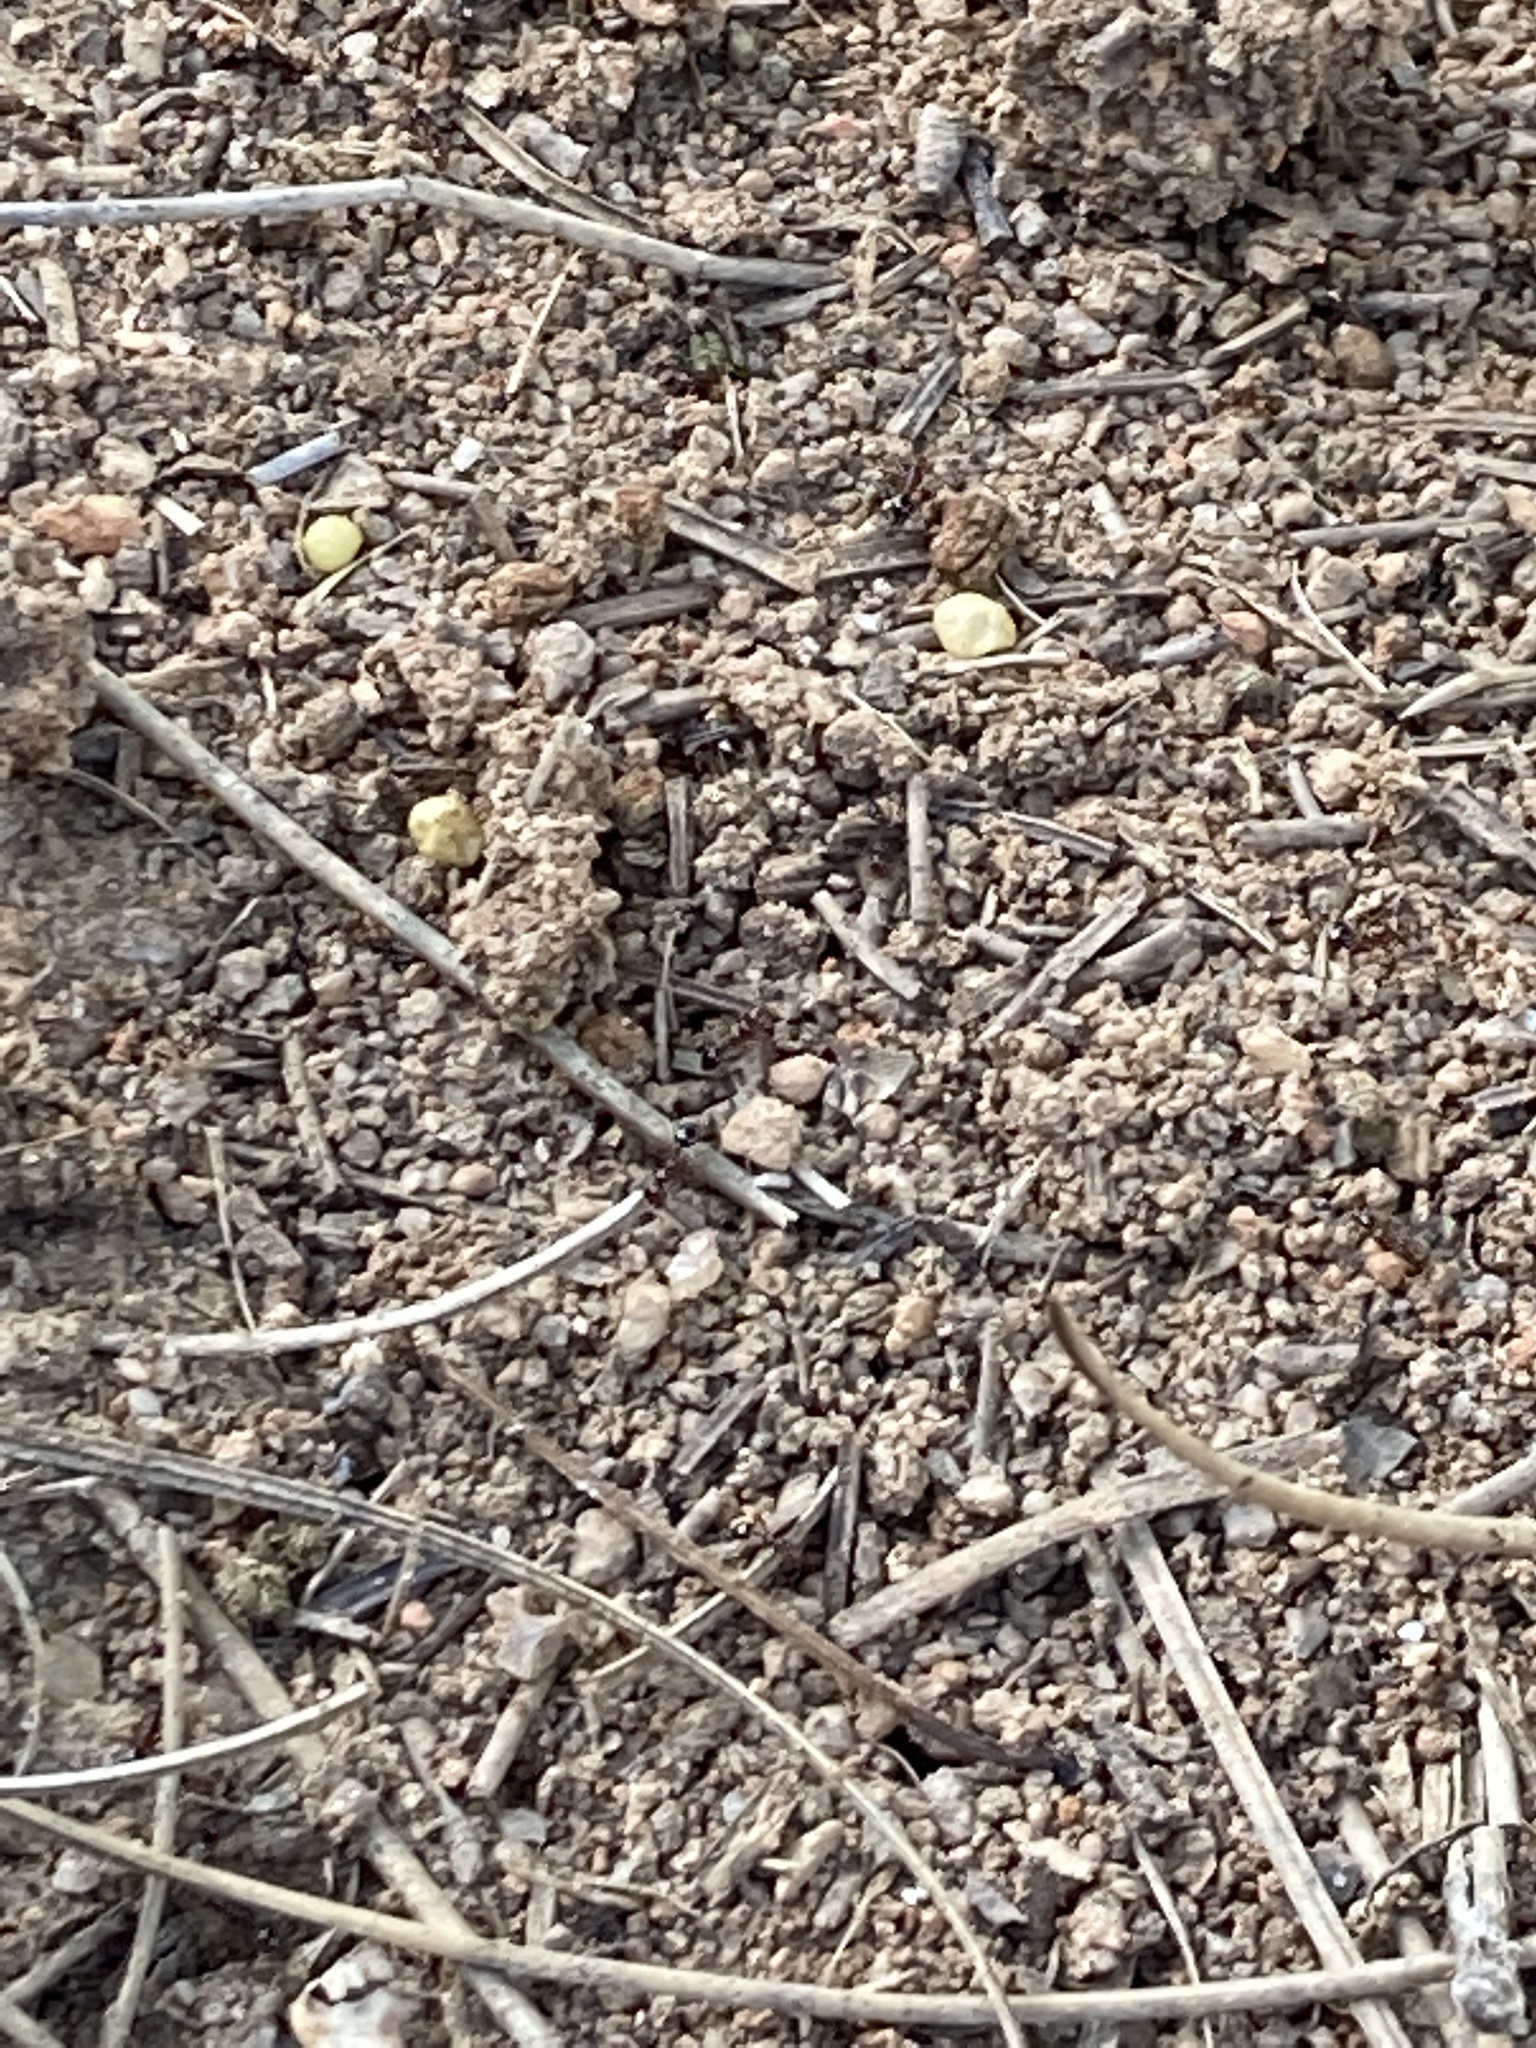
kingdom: Animalia
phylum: Arthropoda
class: Insecta
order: Hymenoptera
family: Formicidae
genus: Solenopsis
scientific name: Solenopsis invicta
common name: Red imported fire ant
